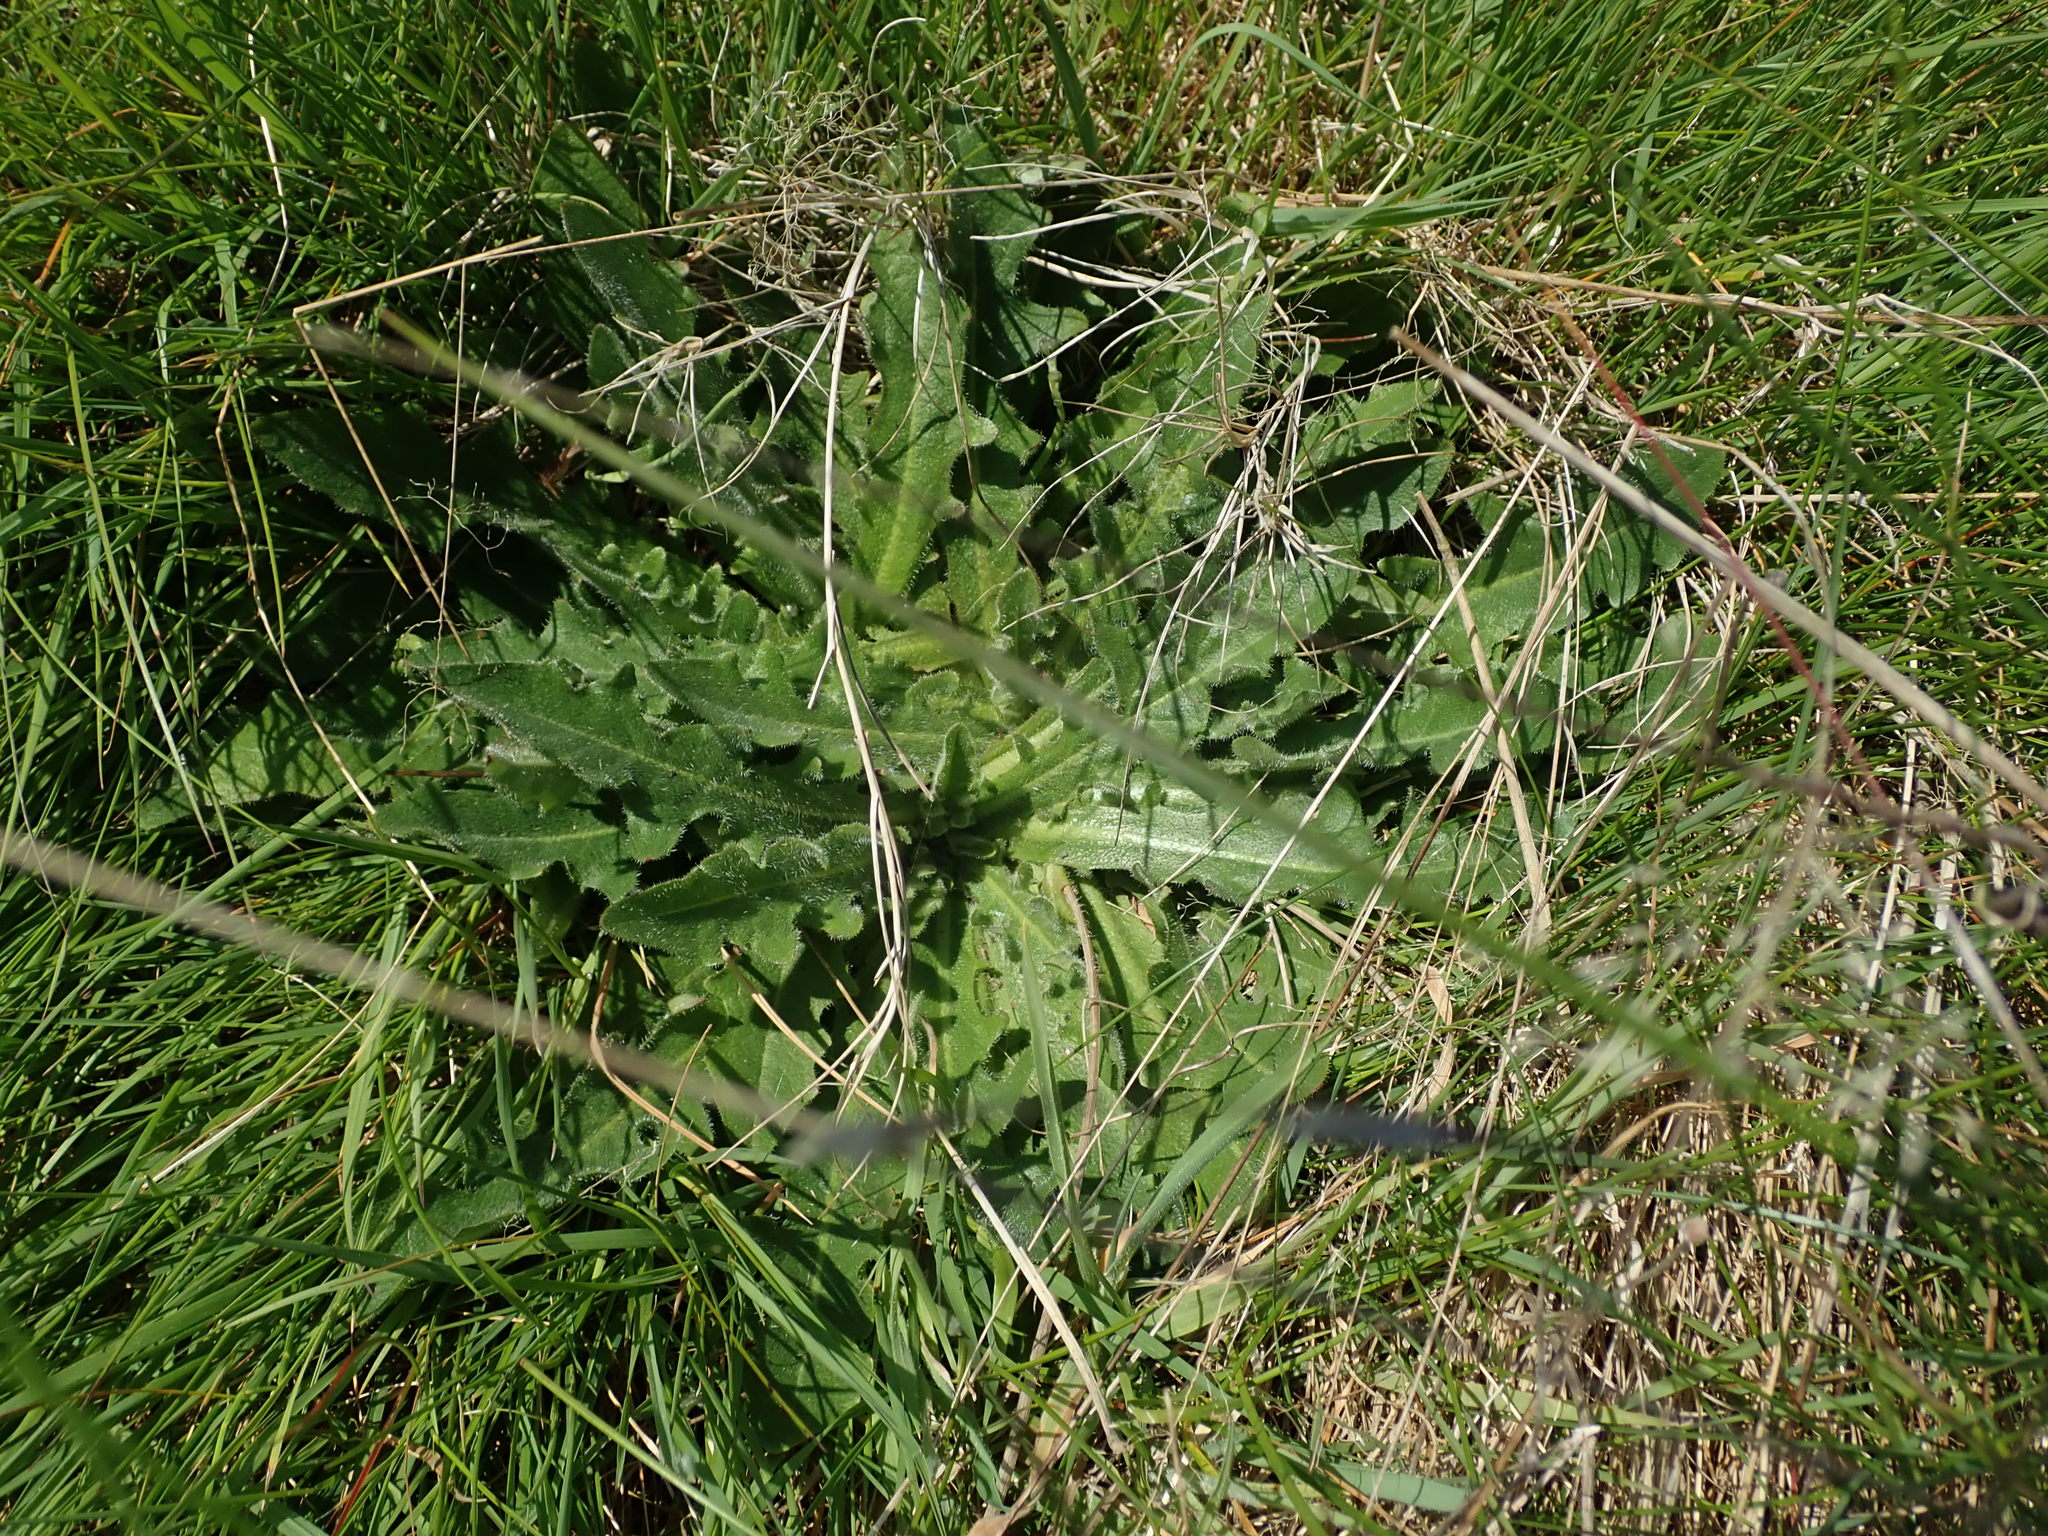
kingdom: Plantae
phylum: Tracheophyta
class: Magnoliopsida
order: Asterales
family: Asteraceae
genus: Hypochaeris
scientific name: Hypochaeris radicata
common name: Flatweed
